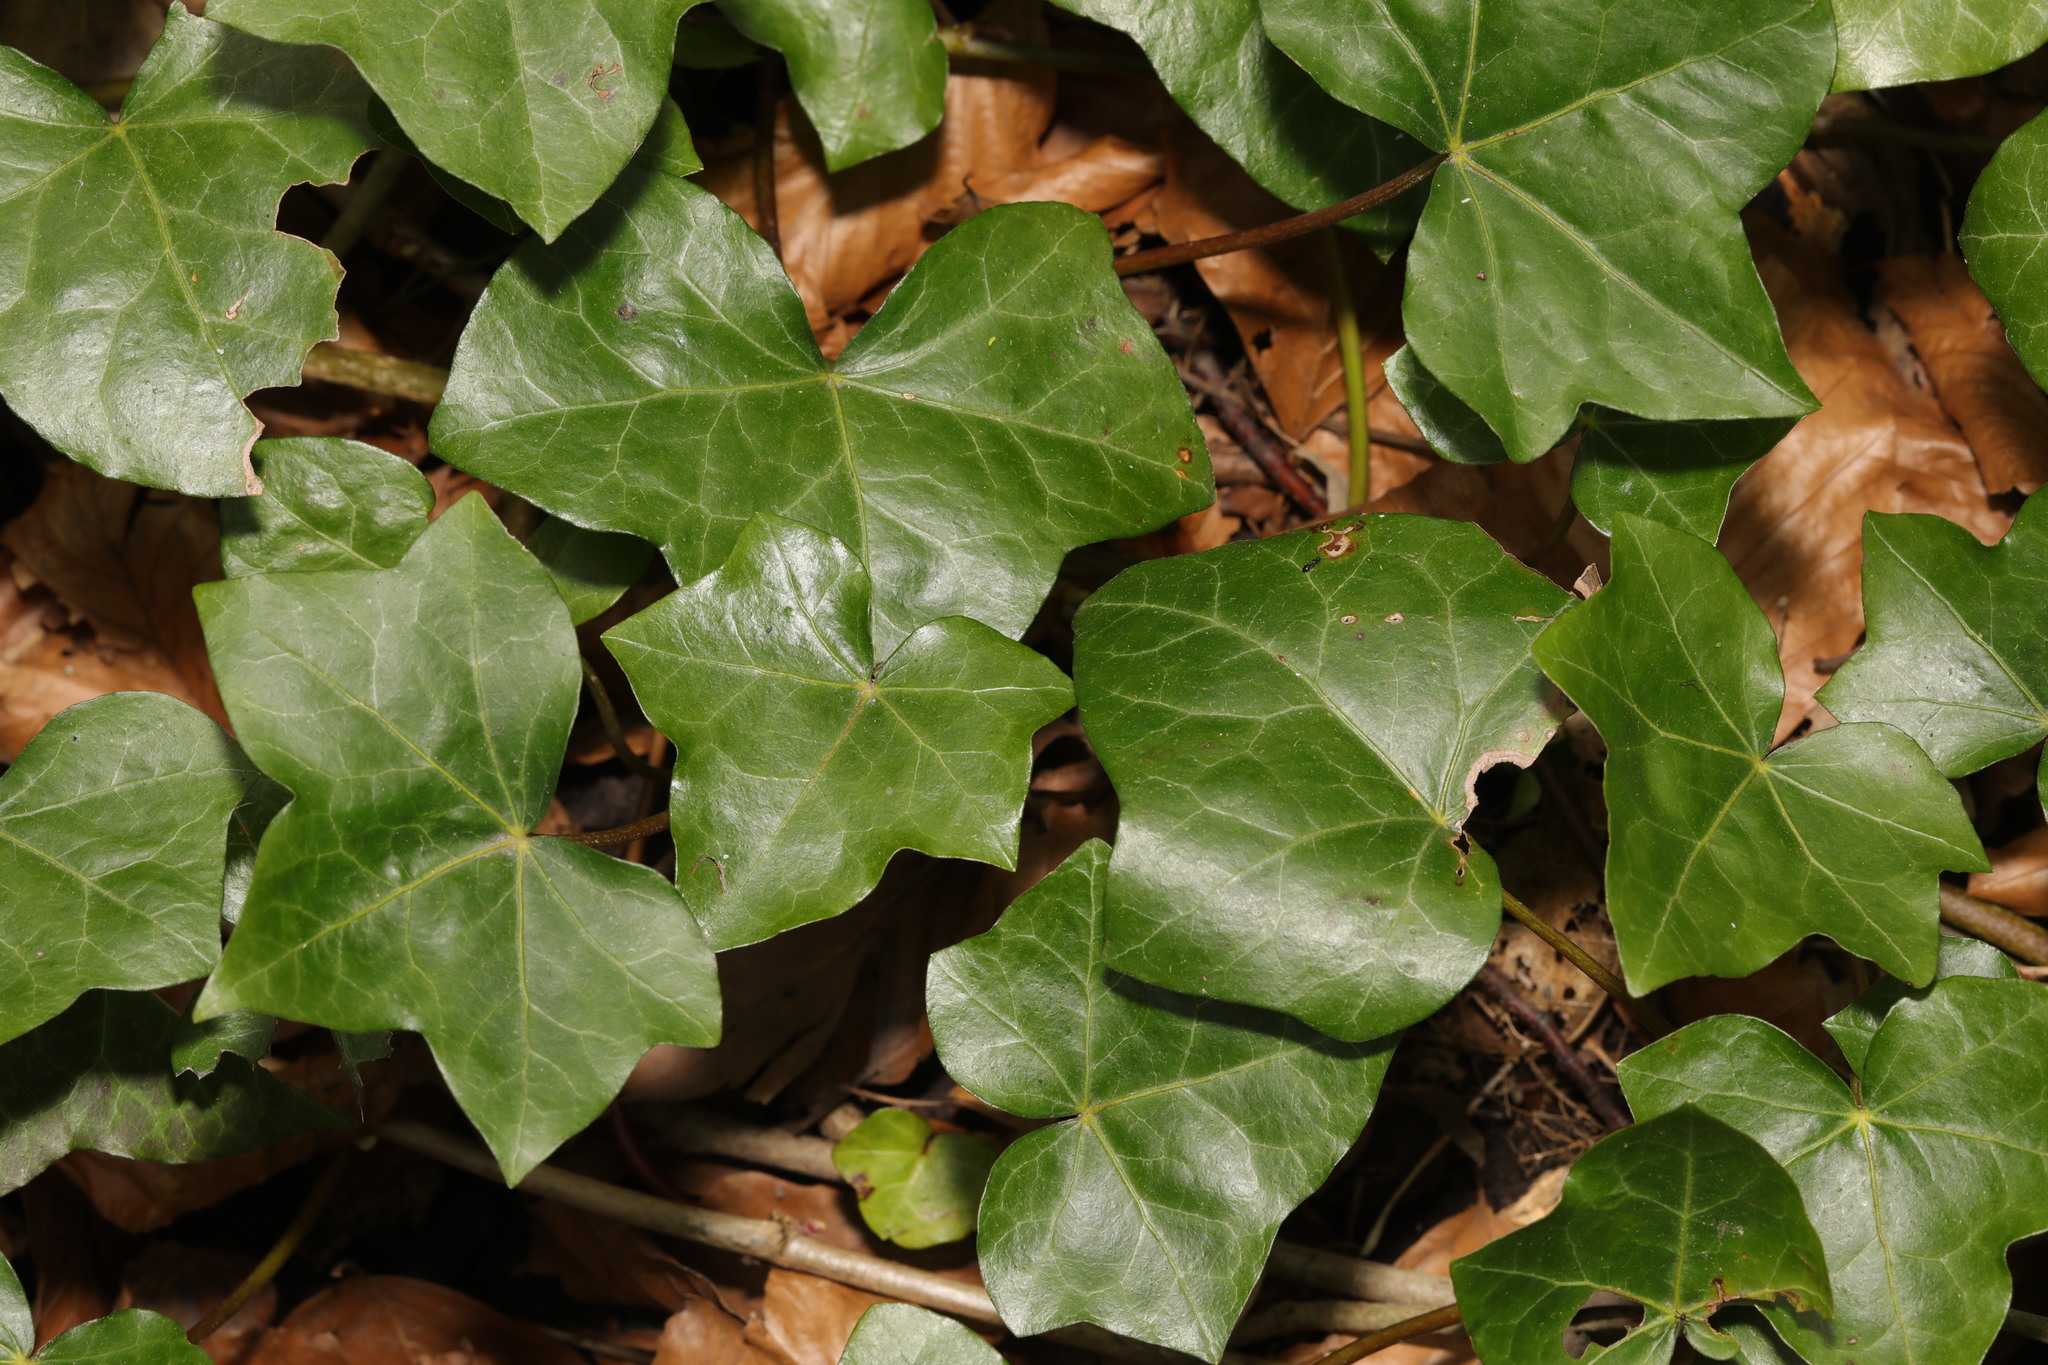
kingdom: Plantae
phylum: Tracheophyta
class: Magnoliopsida
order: Apiales
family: Araliaceae
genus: Hedera
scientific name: Hedera helix
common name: Ivy
